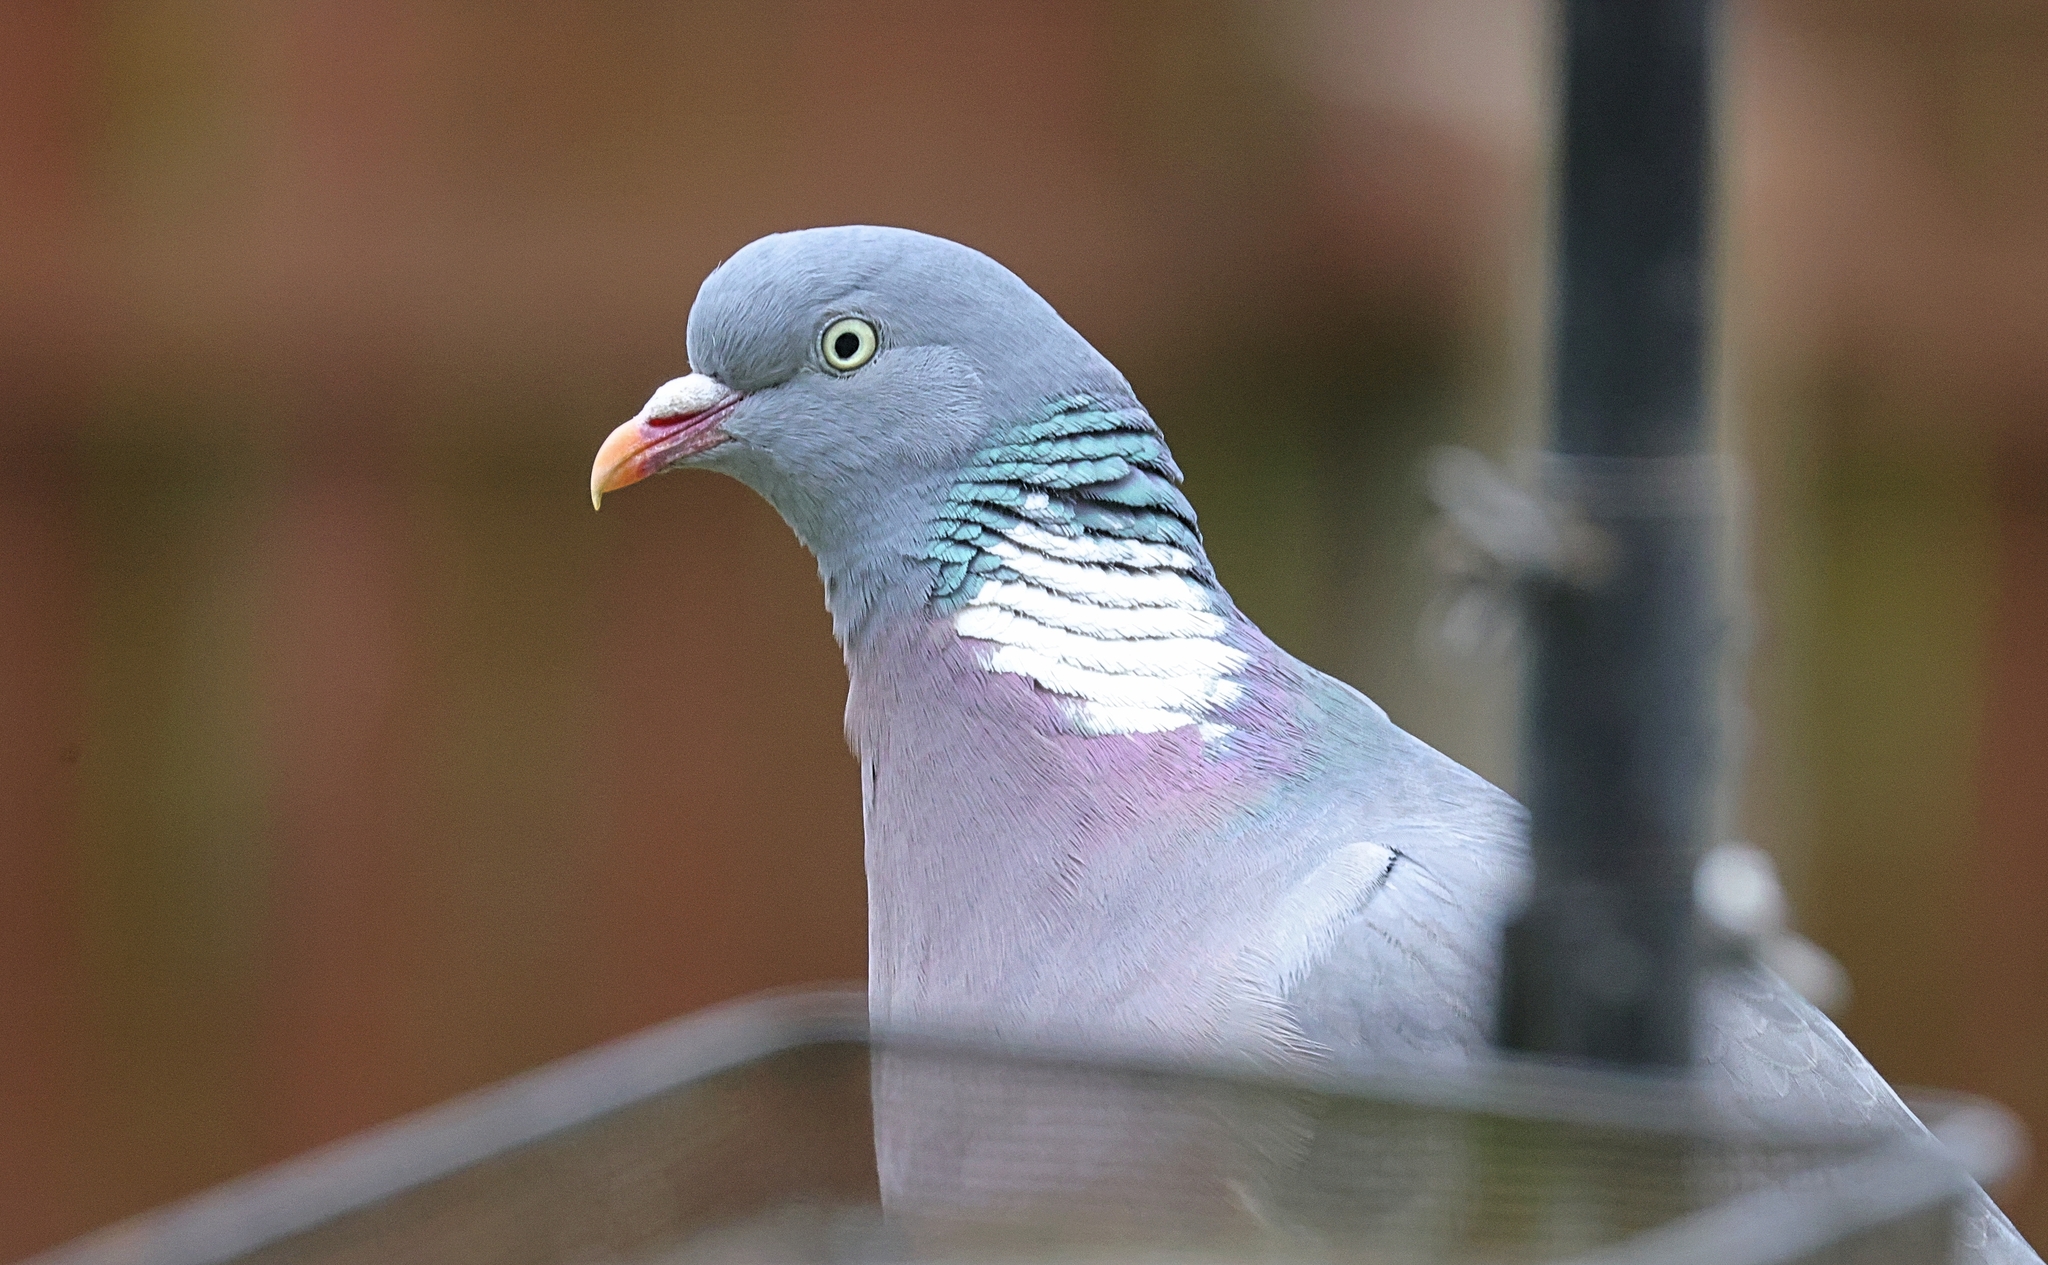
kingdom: Animalia
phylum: Chordata
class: Aves
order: Columbiformes
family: Columbidae
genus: Columba
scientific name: Columba palumbus
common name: Common wood pigeon
